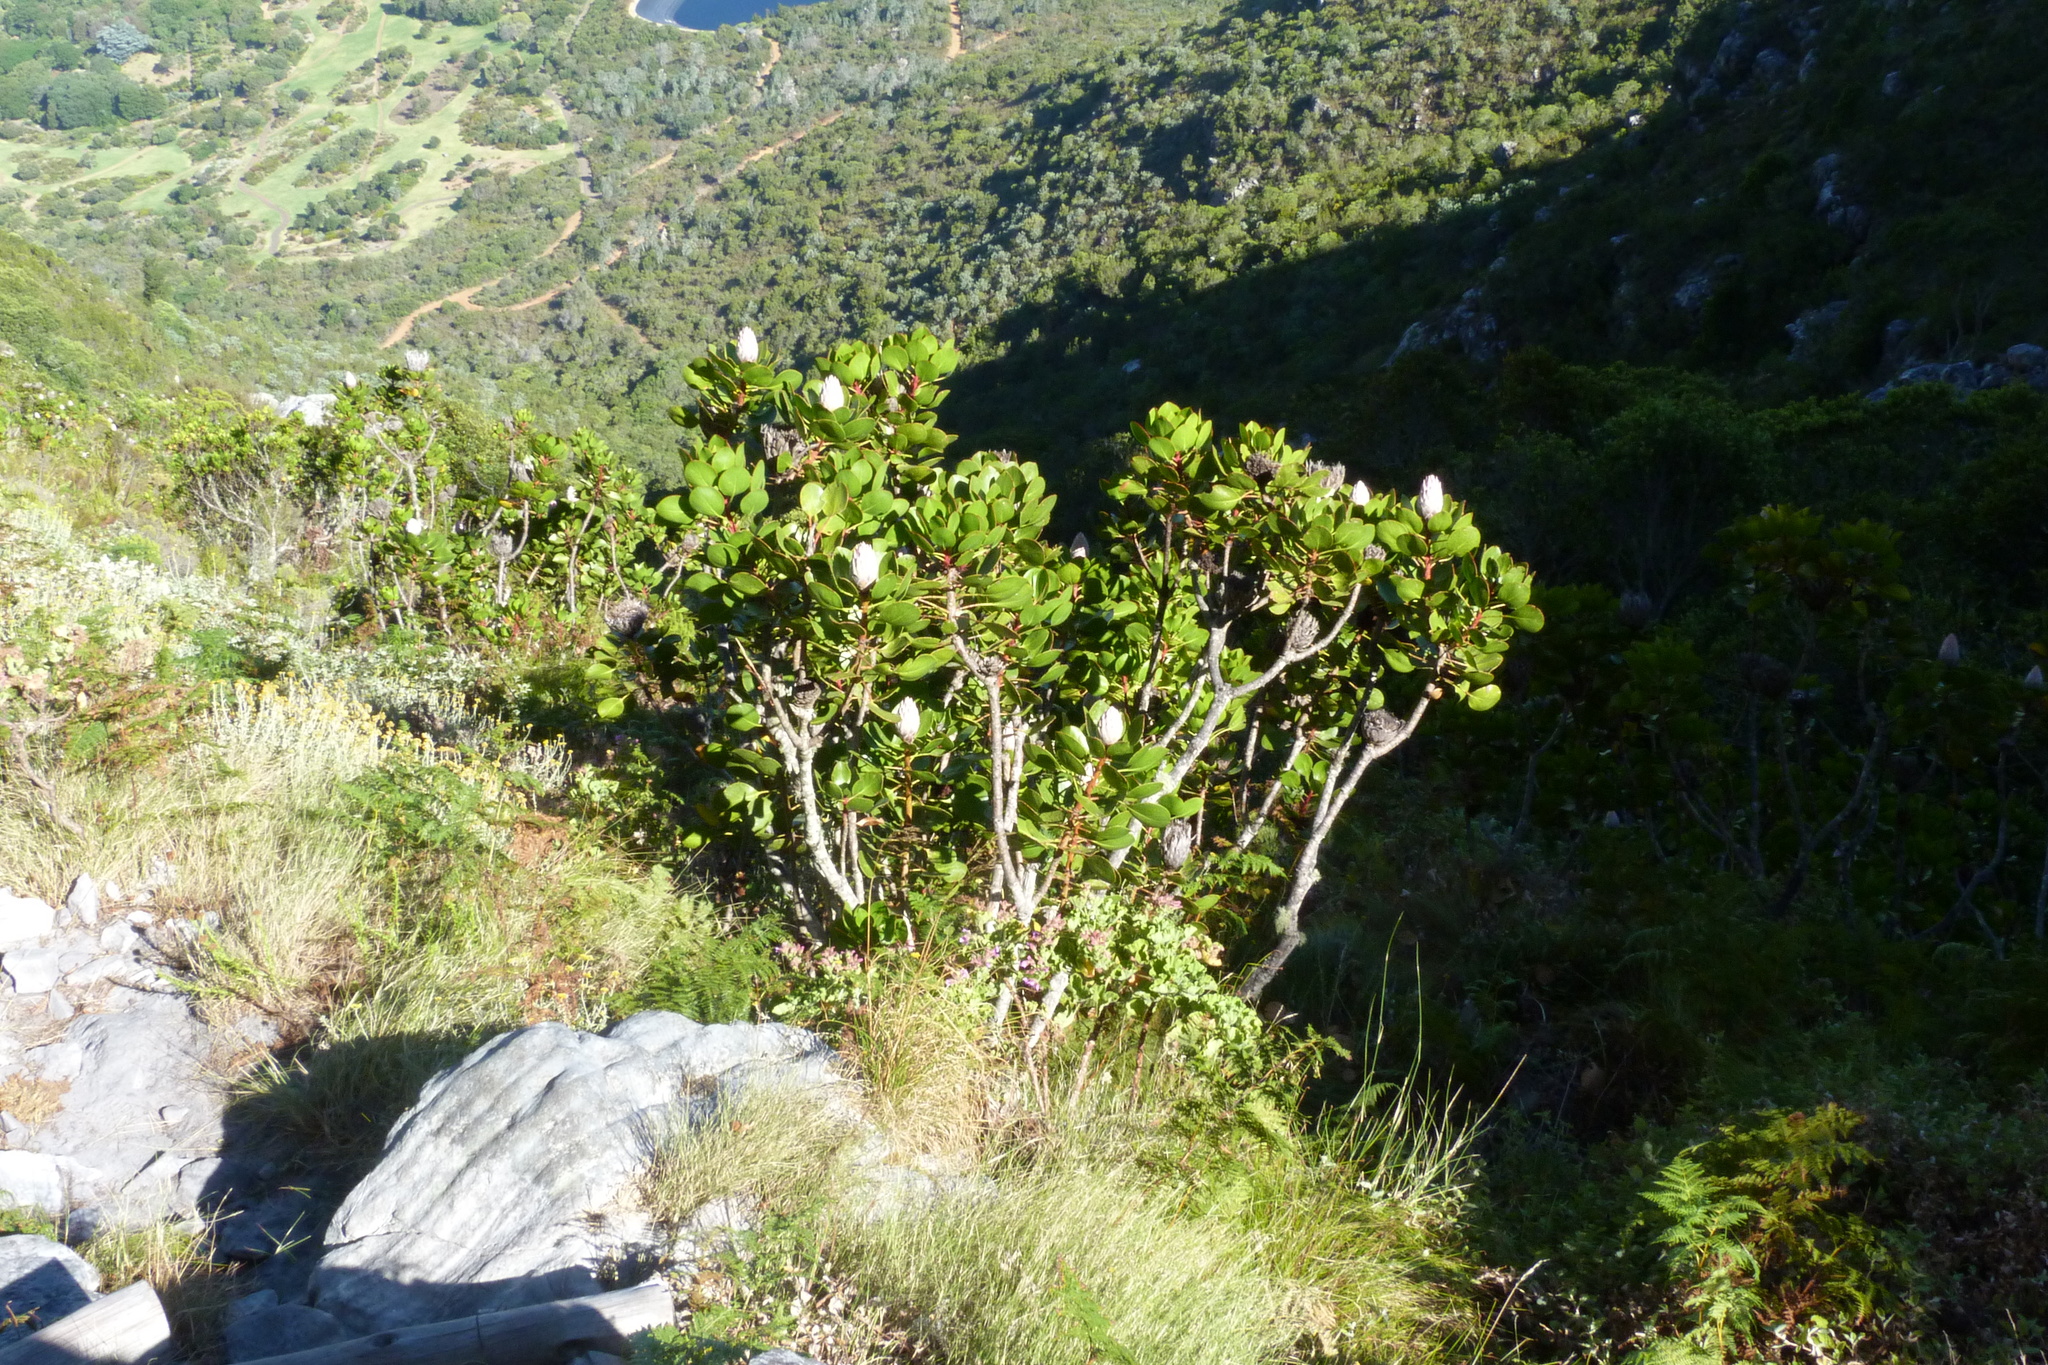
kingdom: Plantae
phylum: Tracheophyta
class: Magnoliopsida
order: Proteales
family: Proteaceae
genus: Protea
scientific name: Protea cynaroides
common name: King protea
